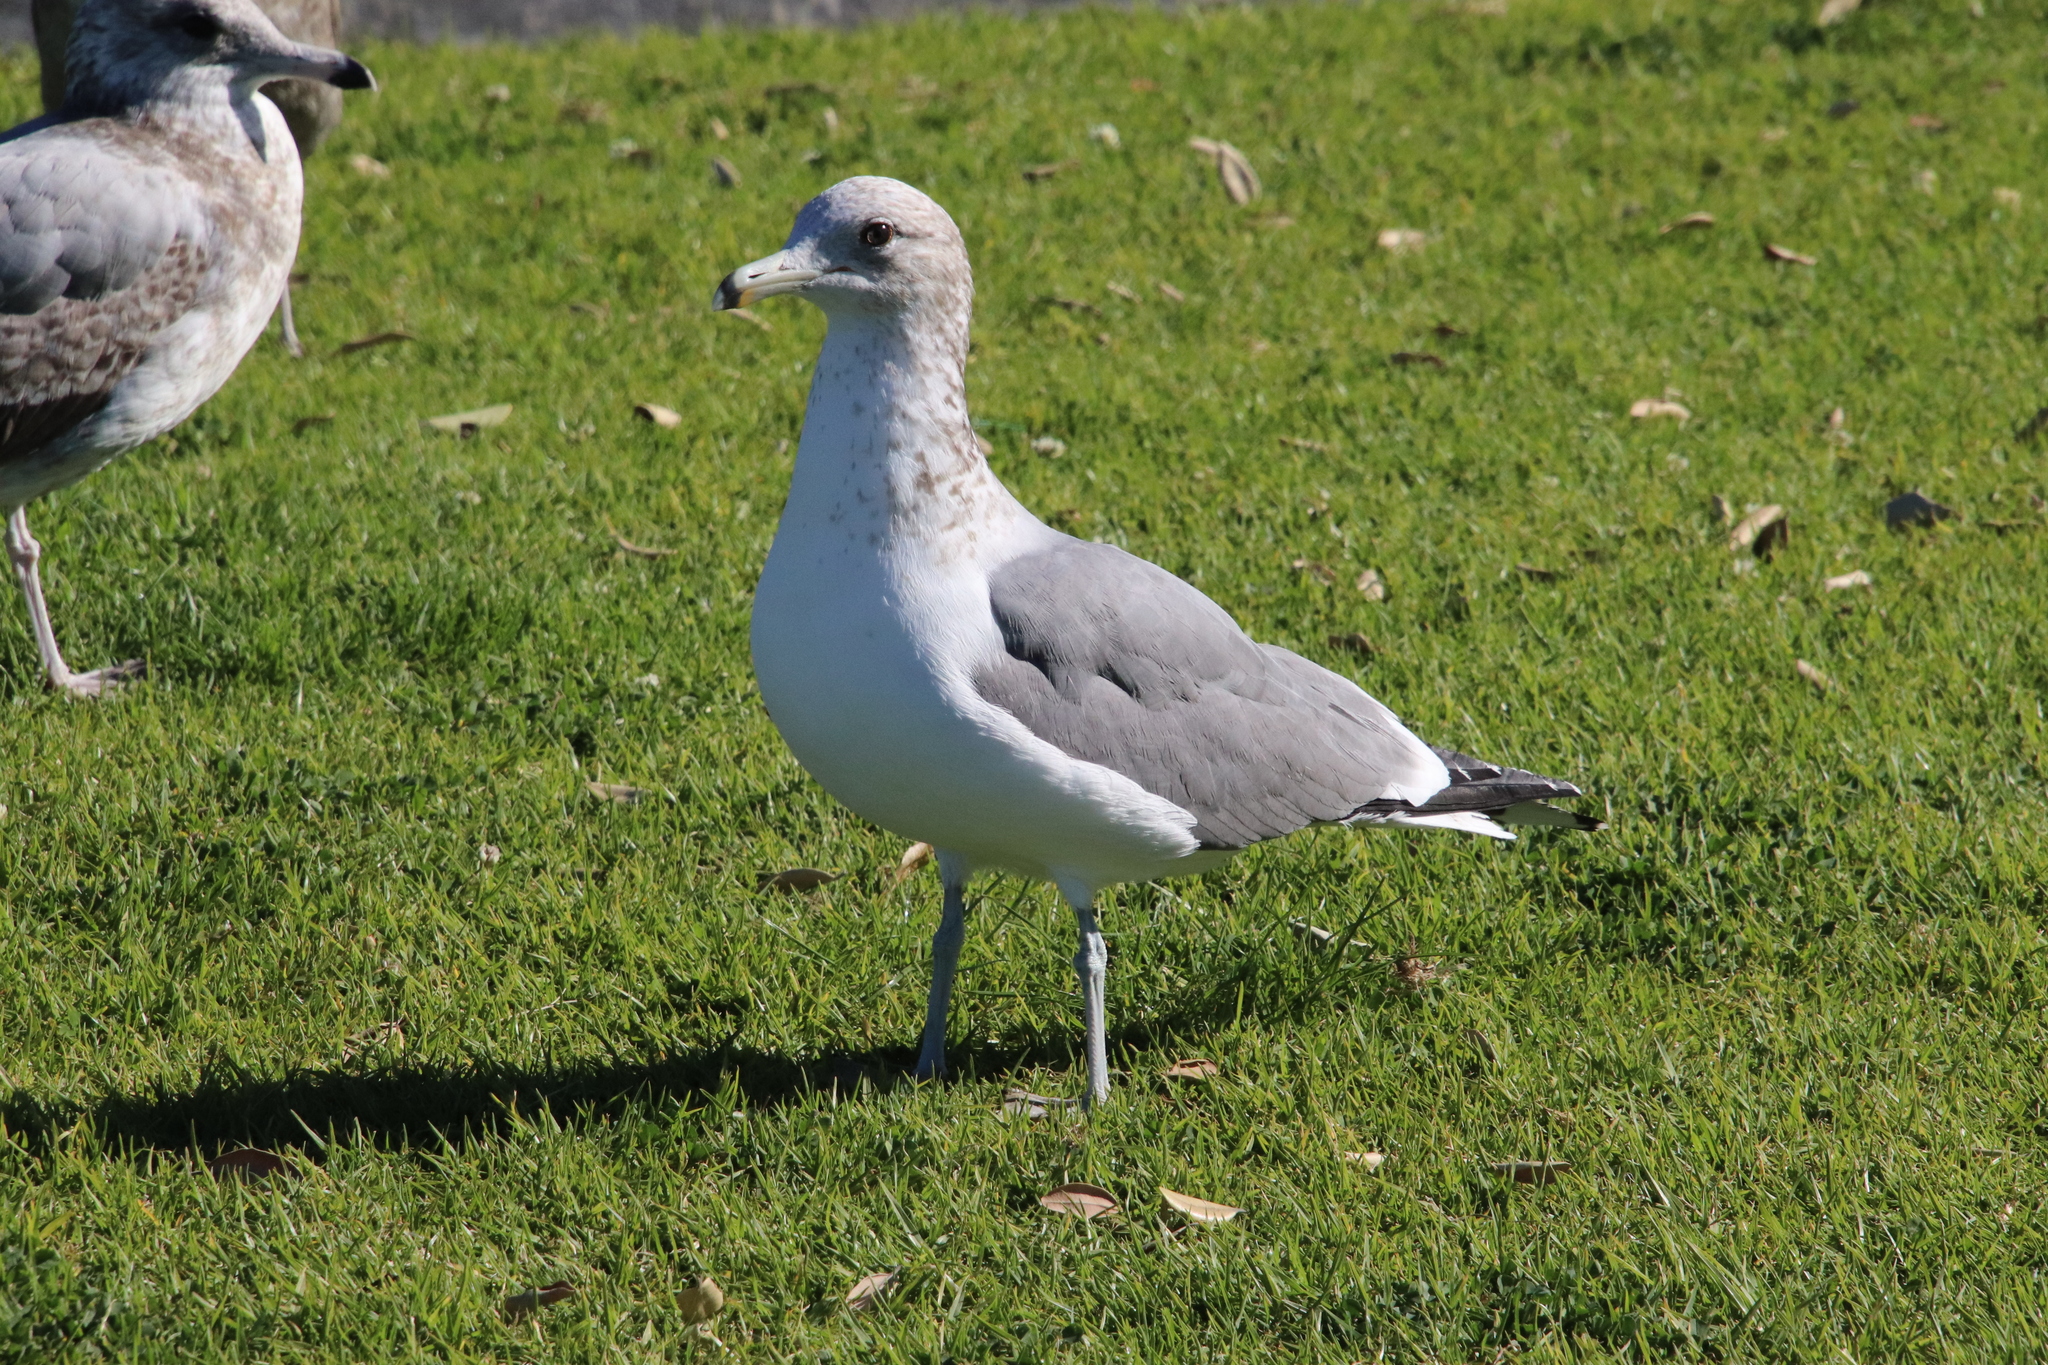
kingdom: Animalia
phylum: Chordata
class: Aves
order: Charadriiformes
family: Laridae
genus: Larus
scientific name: Larus californicus
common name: California gull
